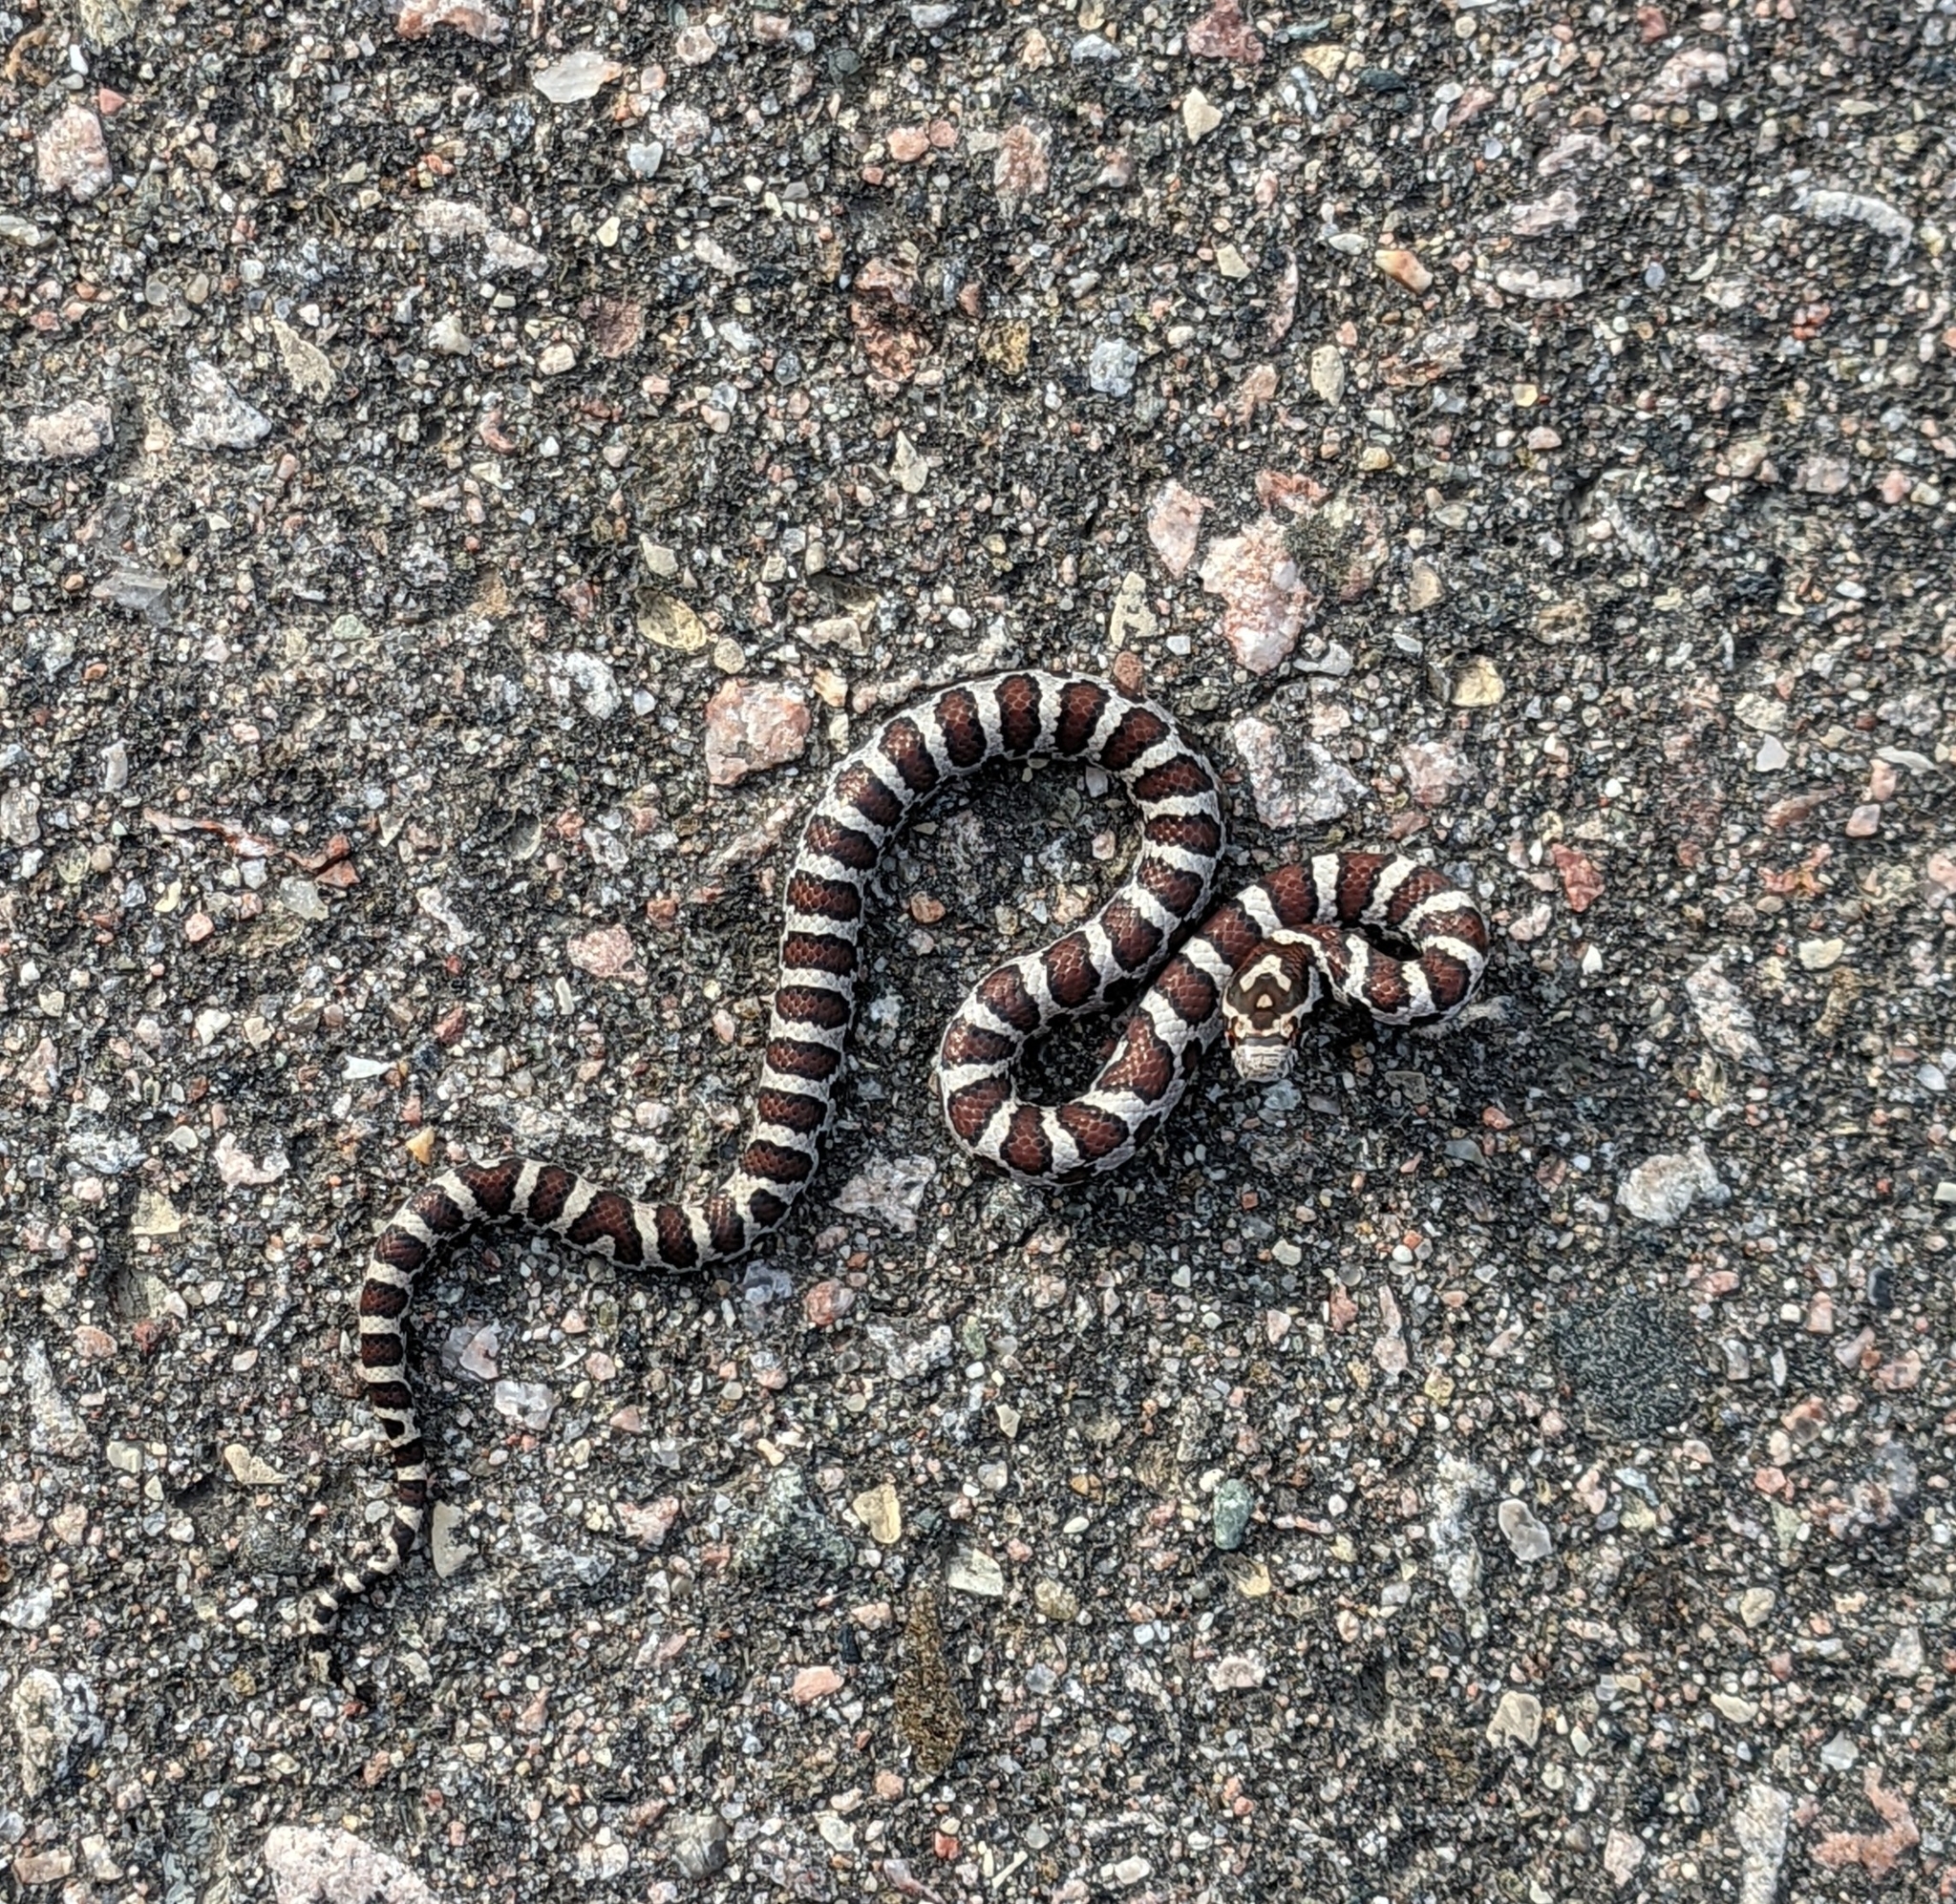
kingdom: Animalia
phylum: Chordata
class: Squamata
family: Colubridae
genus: Lampropeltis
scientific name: Lampropeltis triangulum
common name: Eastern milksnake
